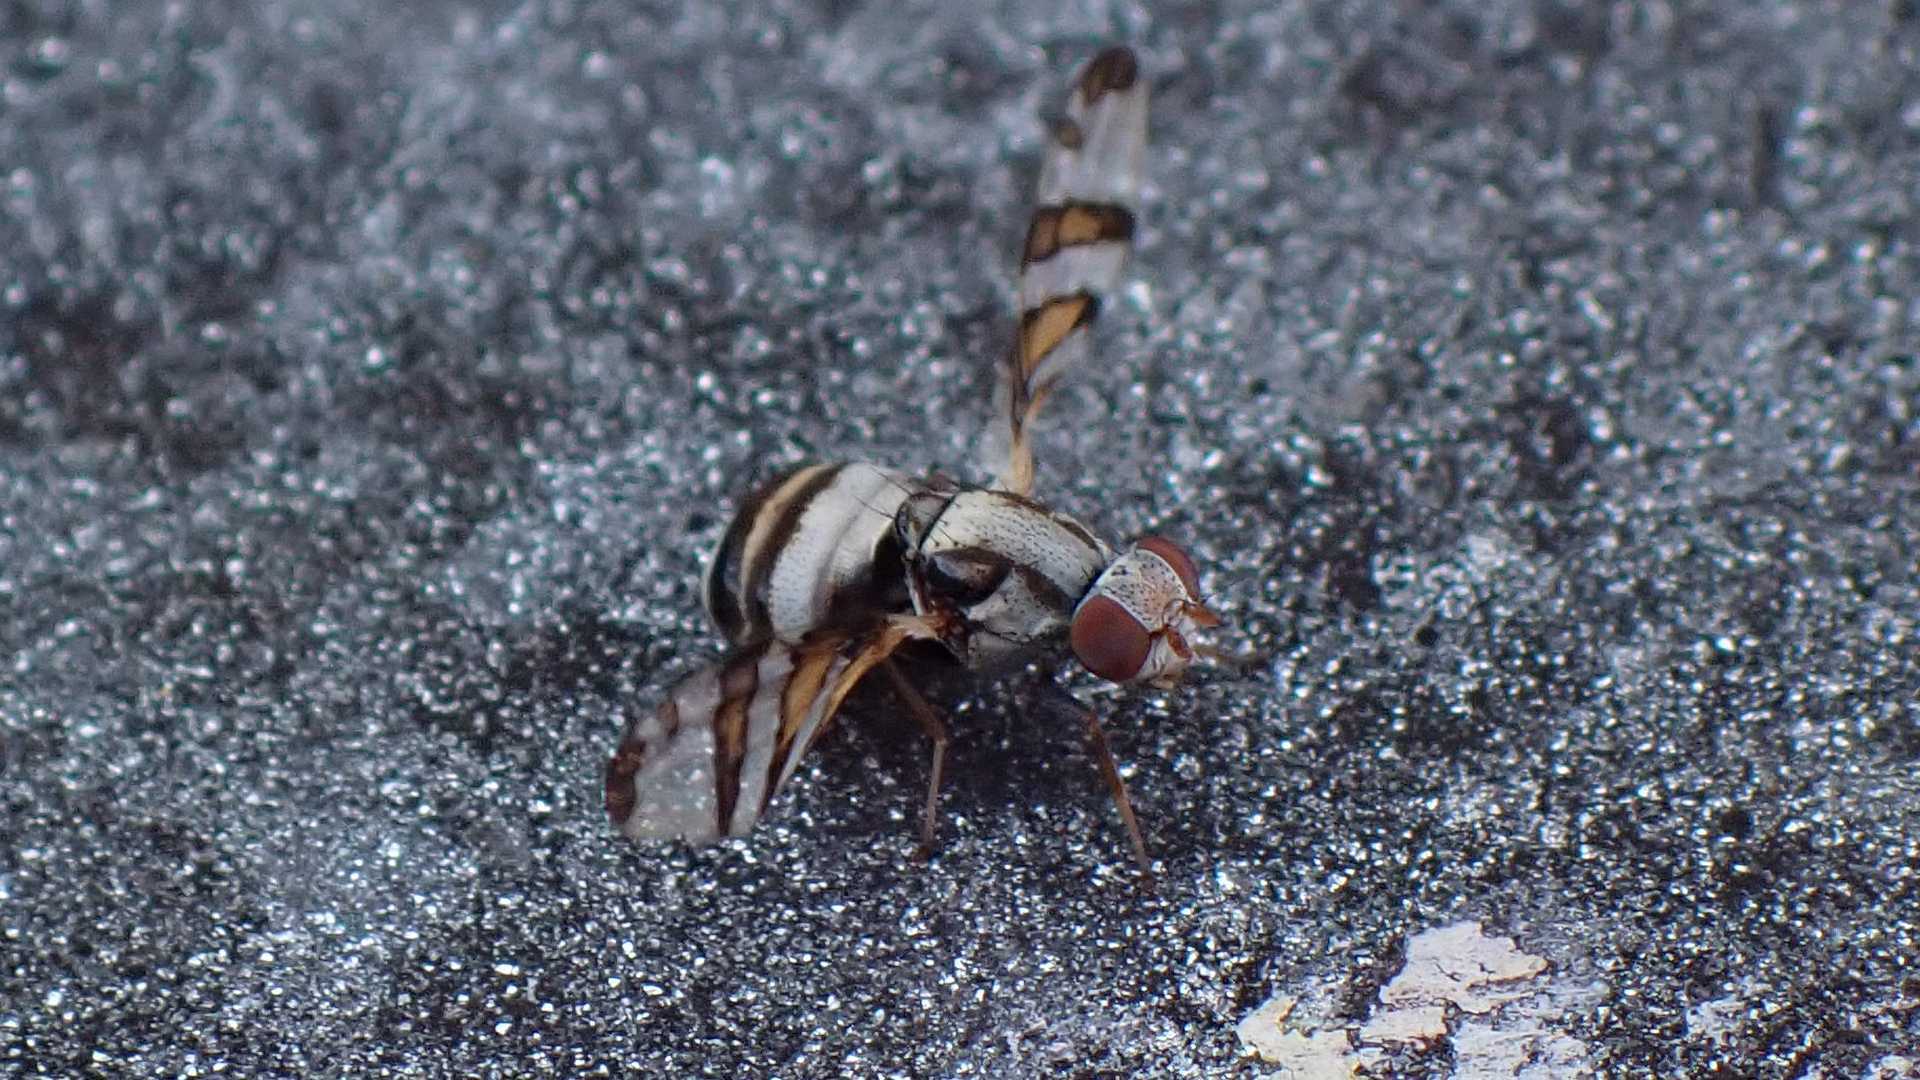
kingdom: Animalia
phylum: Arthropoda
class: Insecta
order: Diptera
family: Ulidiidae
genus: Myennis
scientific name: Myennis octopunctata
